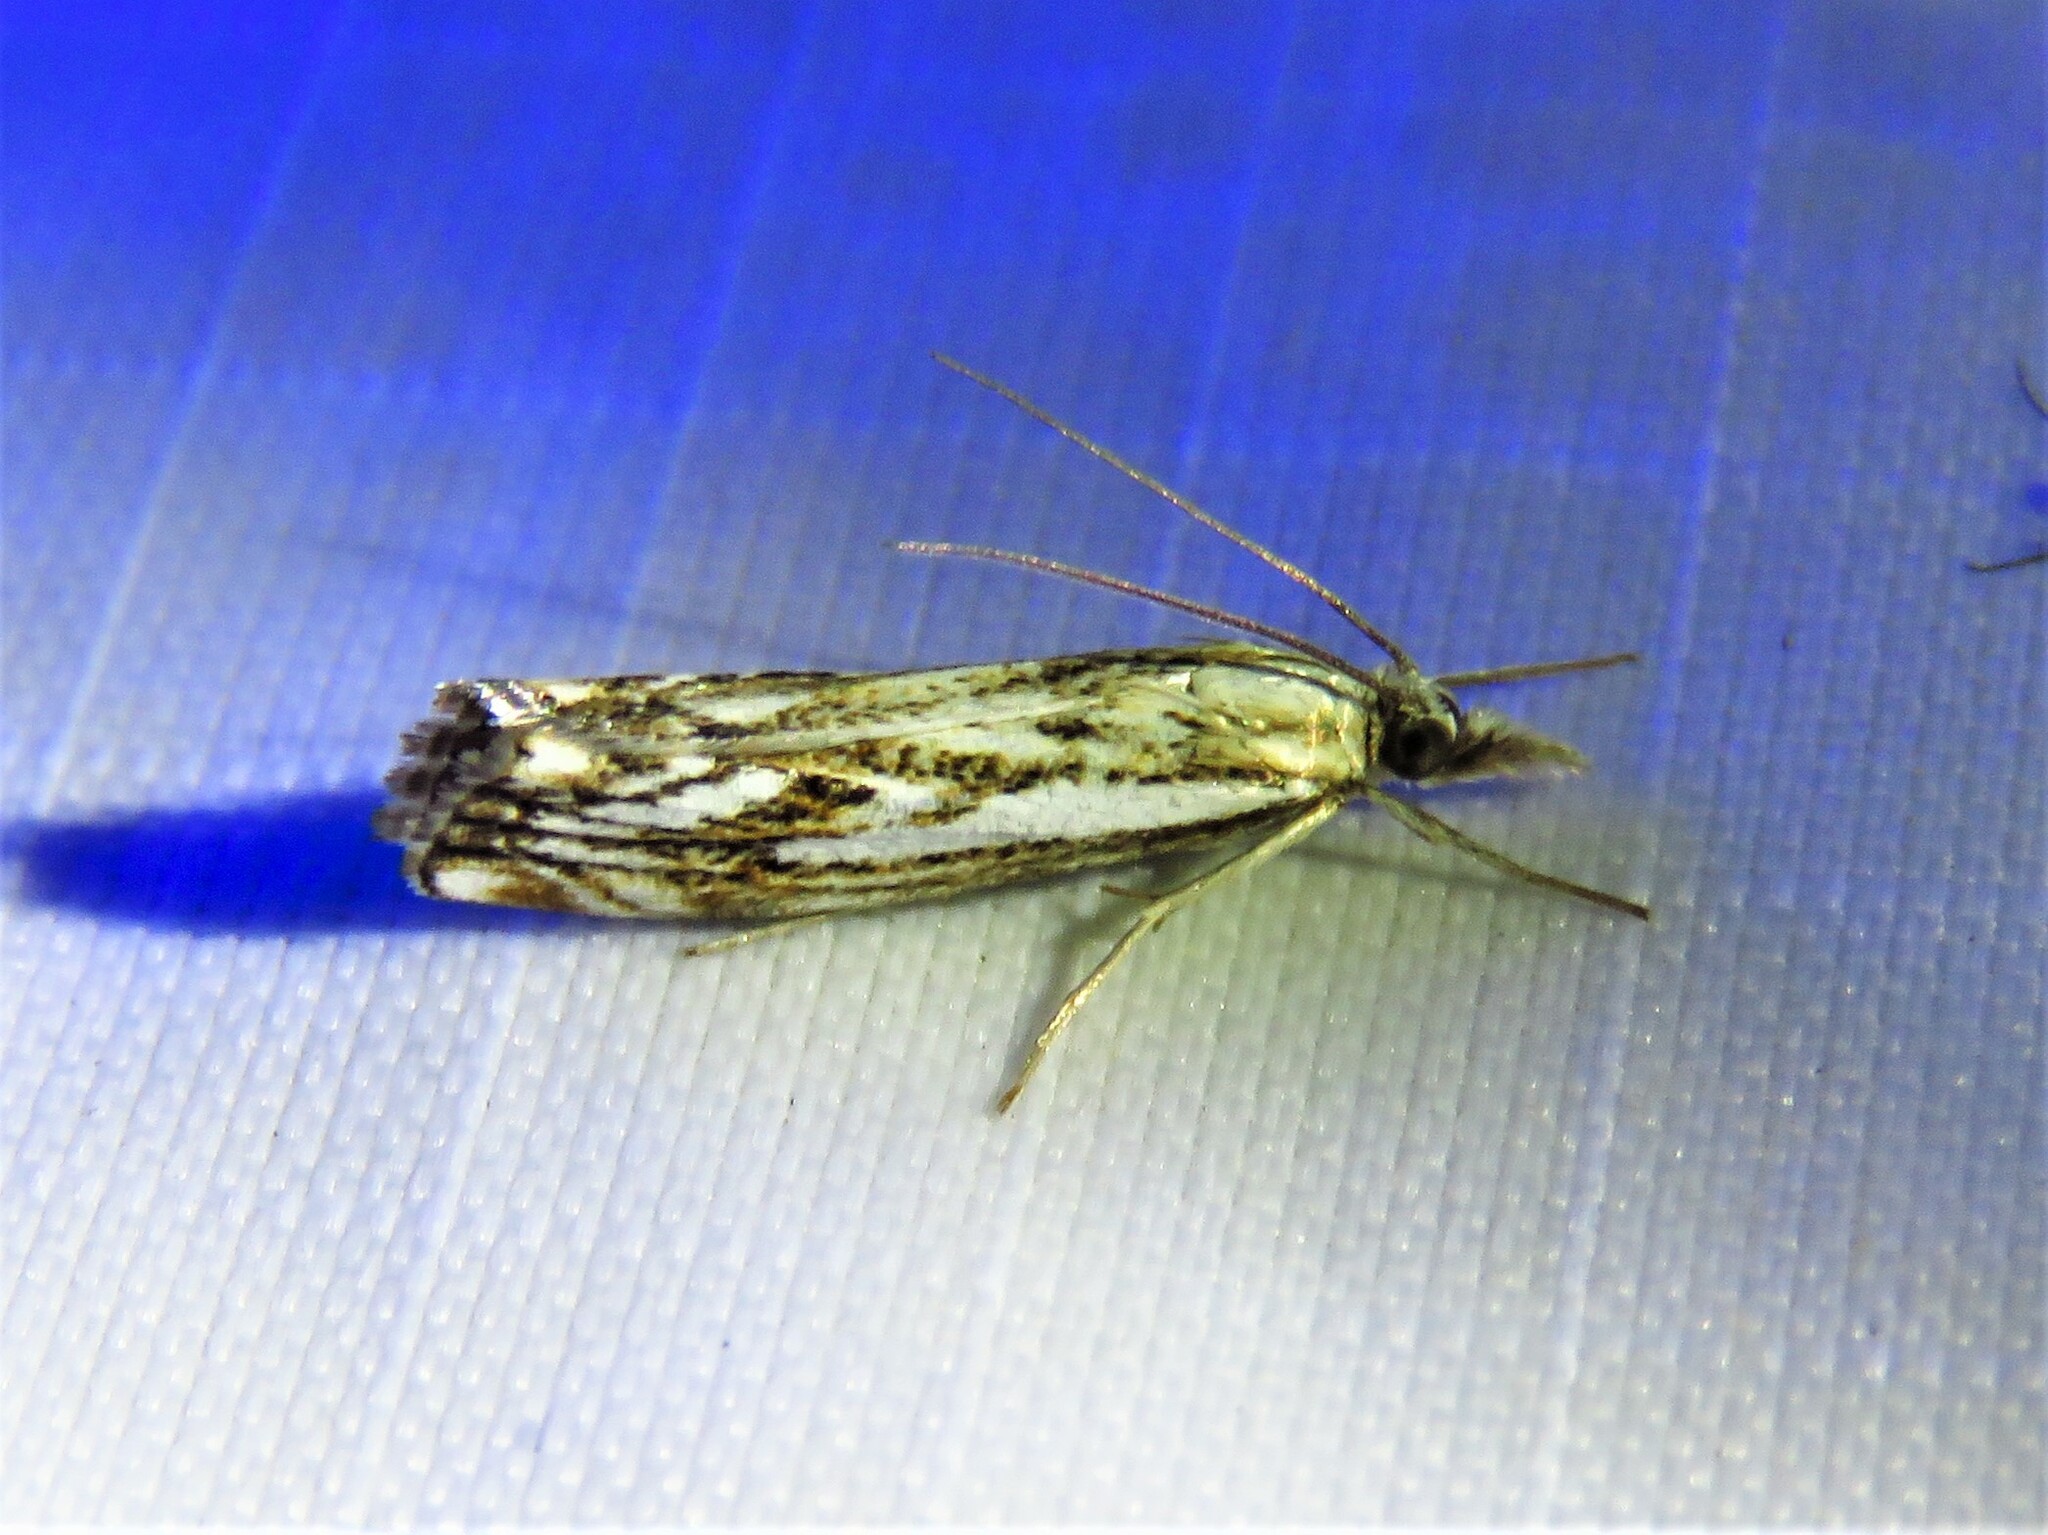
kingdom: Animalia
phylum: Arthropoda
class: Insecta
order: Lepidoptera
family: Crambidae
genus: Catoptria
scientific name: Catoptria falsella
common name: Chequered grass-veneer
